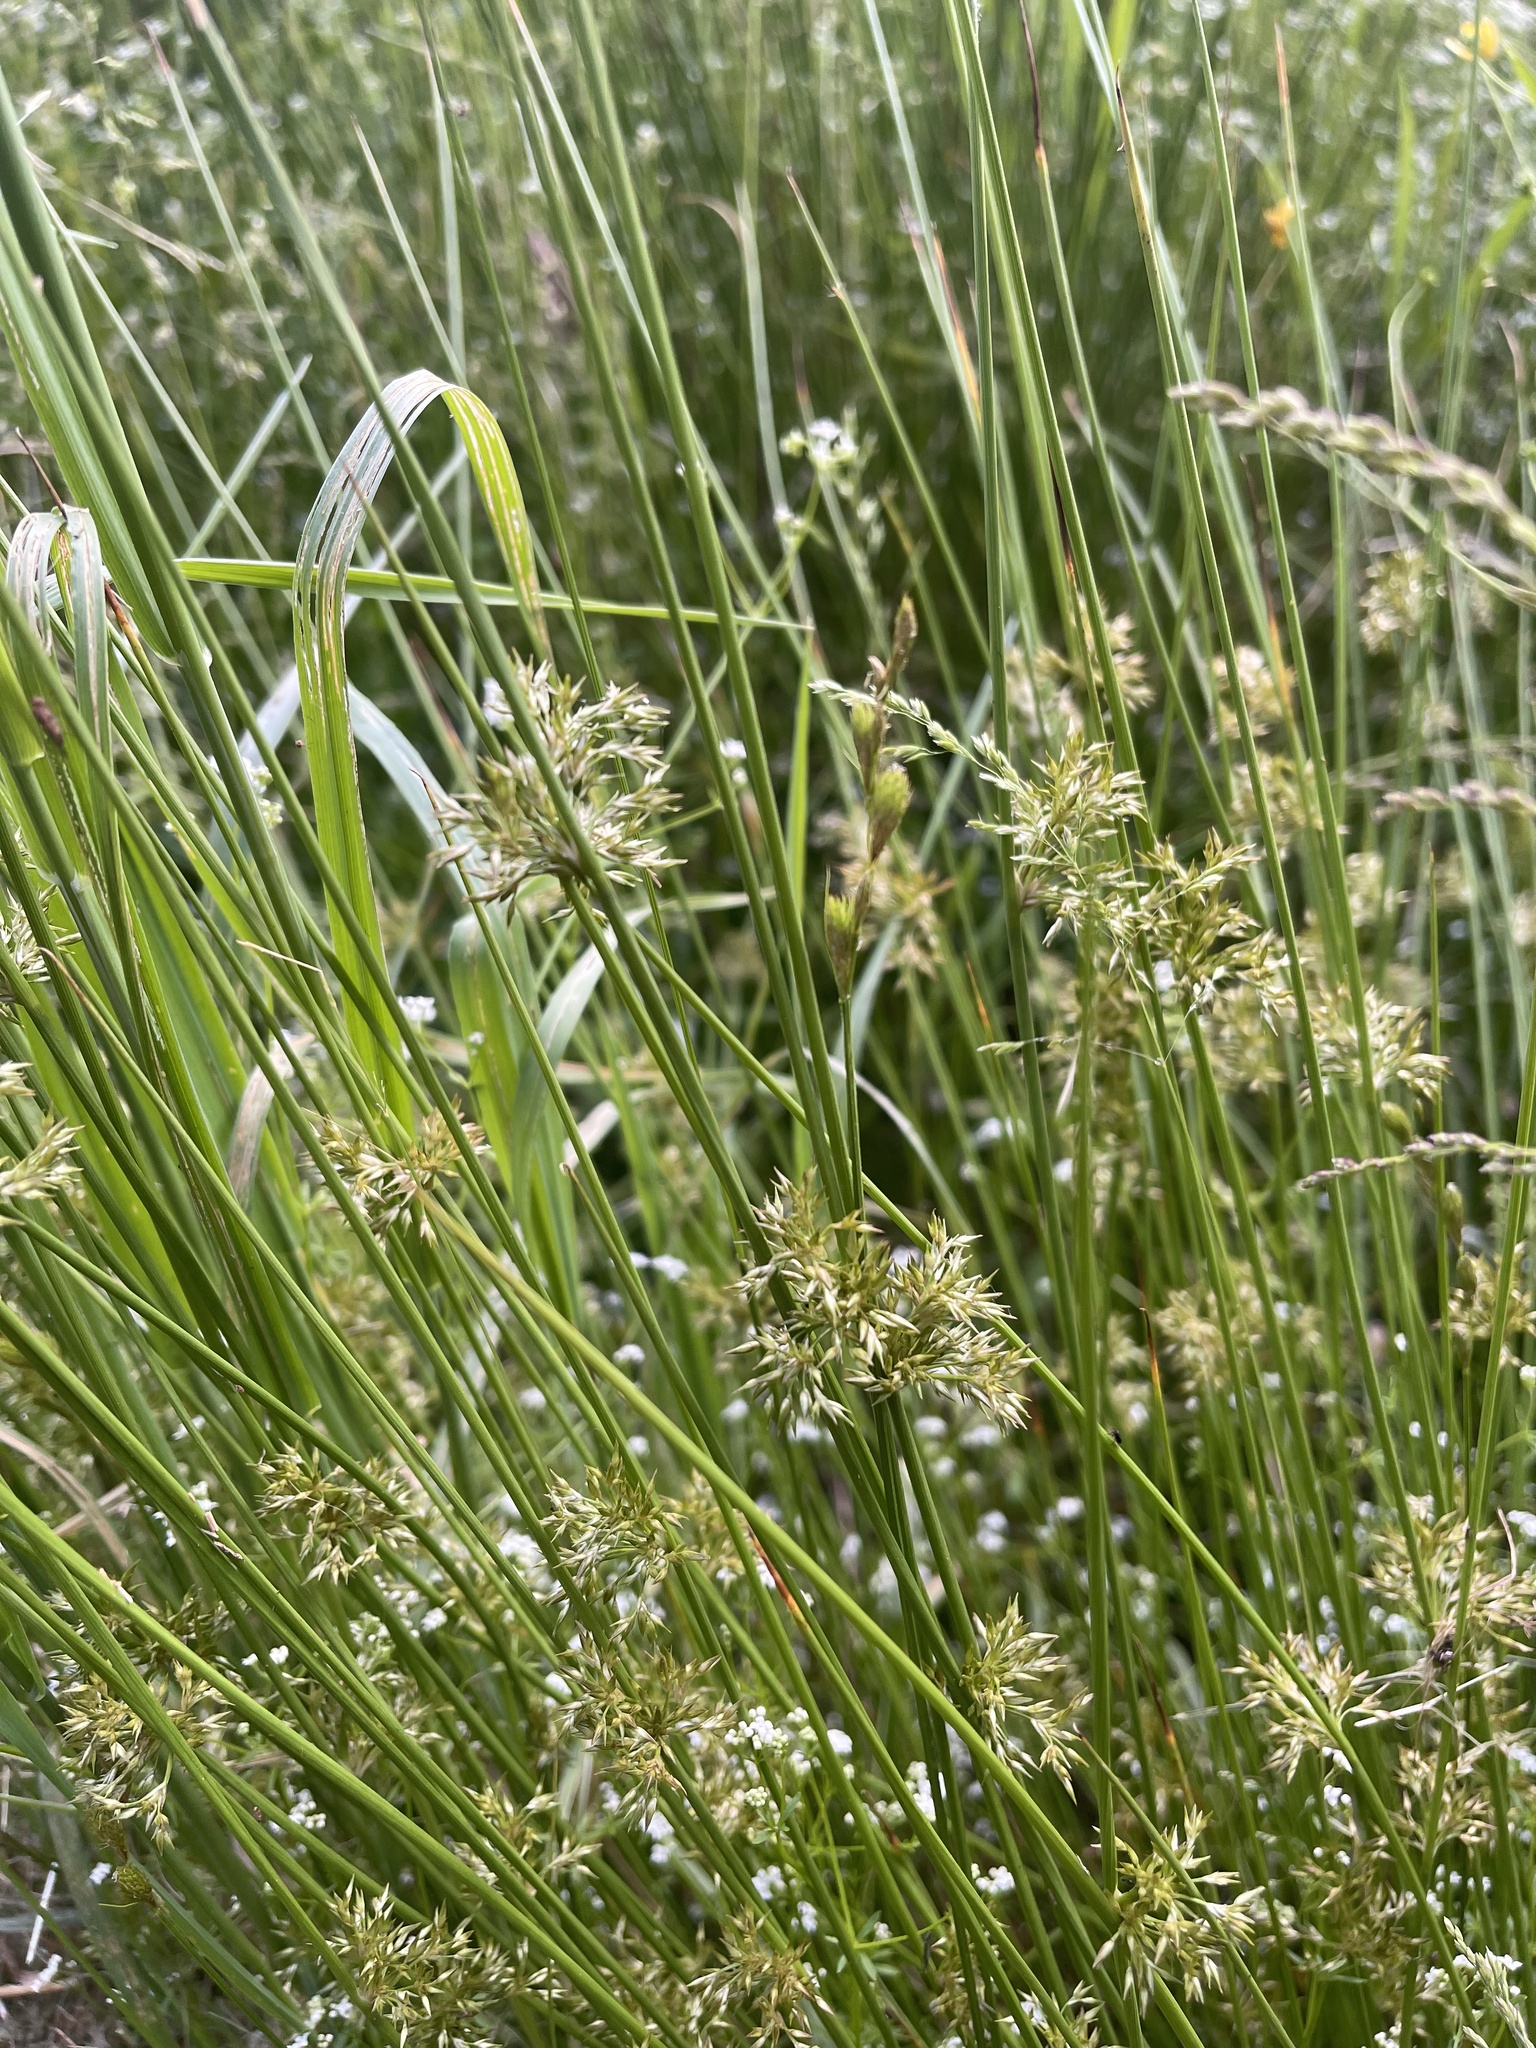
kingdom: Plantae
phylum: Tracheophyta
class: Liliopsida
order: Poales
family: Juncaceae
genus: Juncus
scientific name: Juncus effusus
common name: Soft rush
